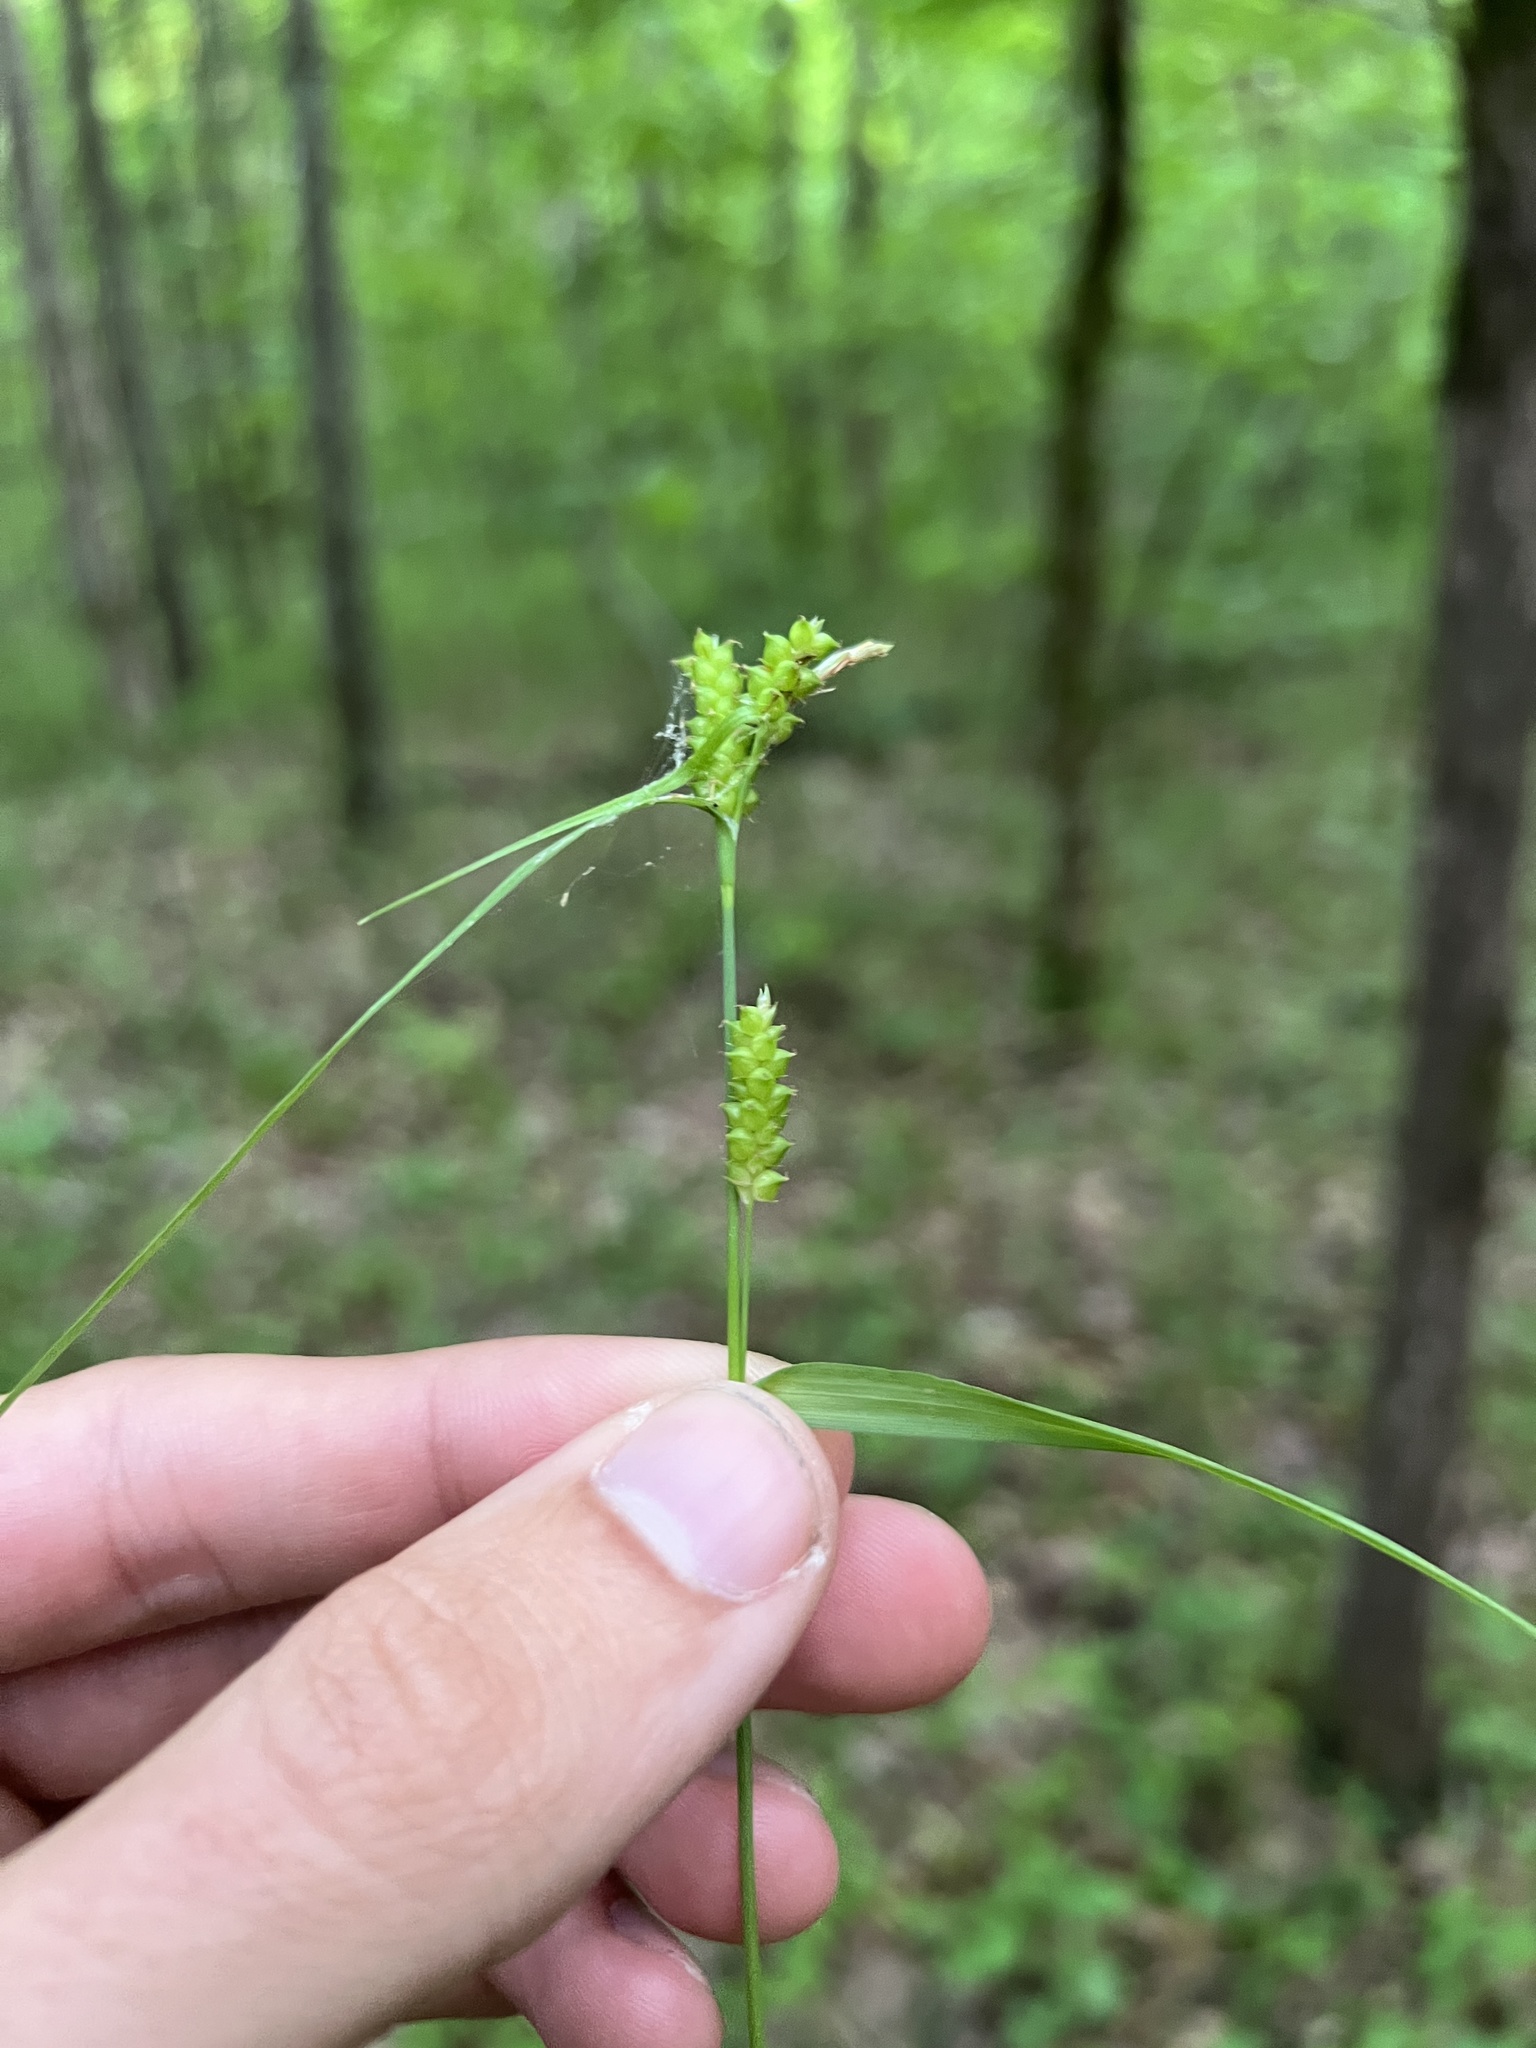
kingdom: Plantae
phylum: Tracheophyta
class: Liliopsida
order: Poales
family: Cyperaceae
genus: Carex
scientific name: Carex granularis
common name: Granular sedge
